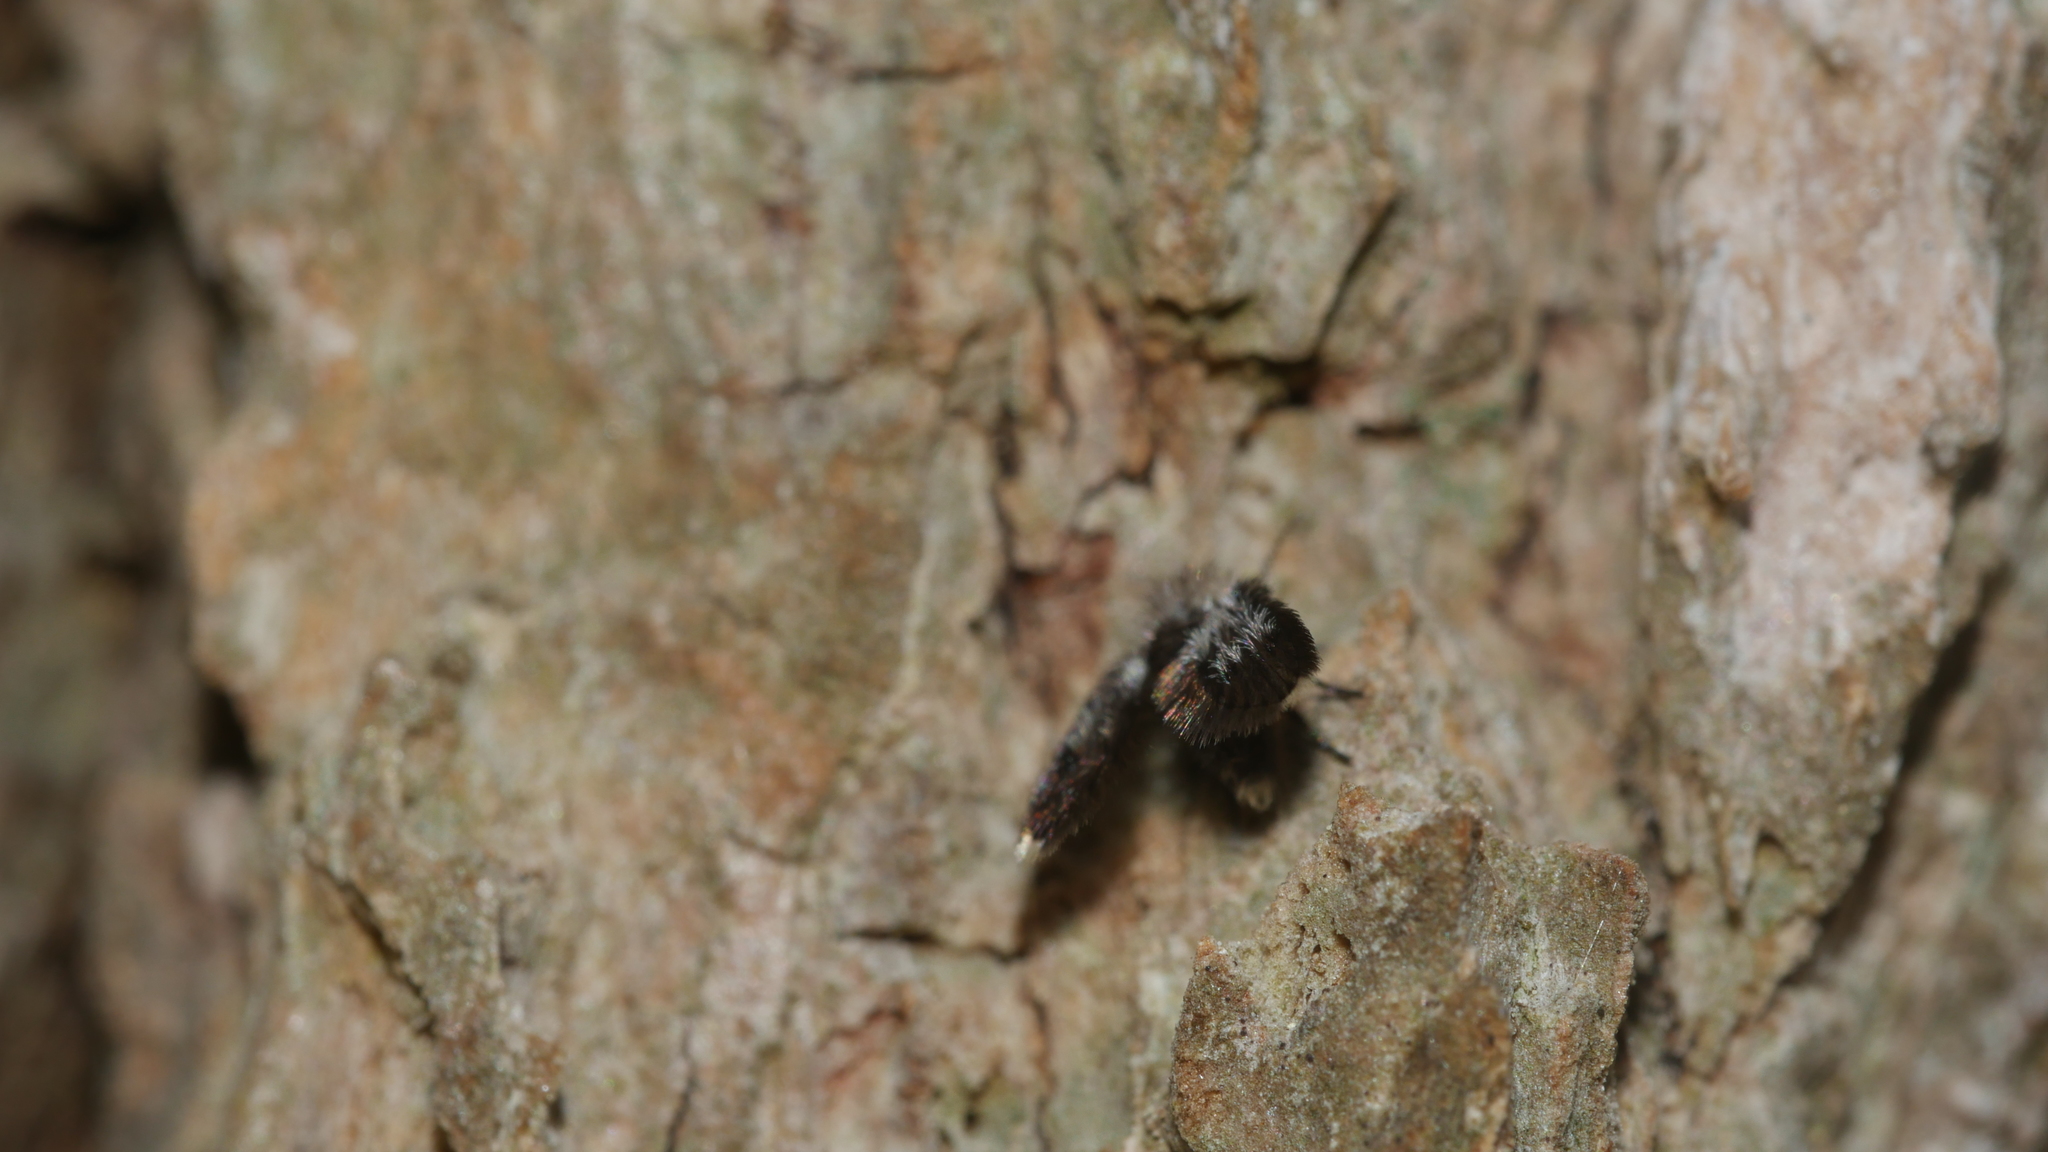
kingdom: Animalia
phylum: Arthropoda
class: Insecta
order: Diptera
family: Psychodidae
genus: Lepiseodina
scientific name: Lepiseodina
